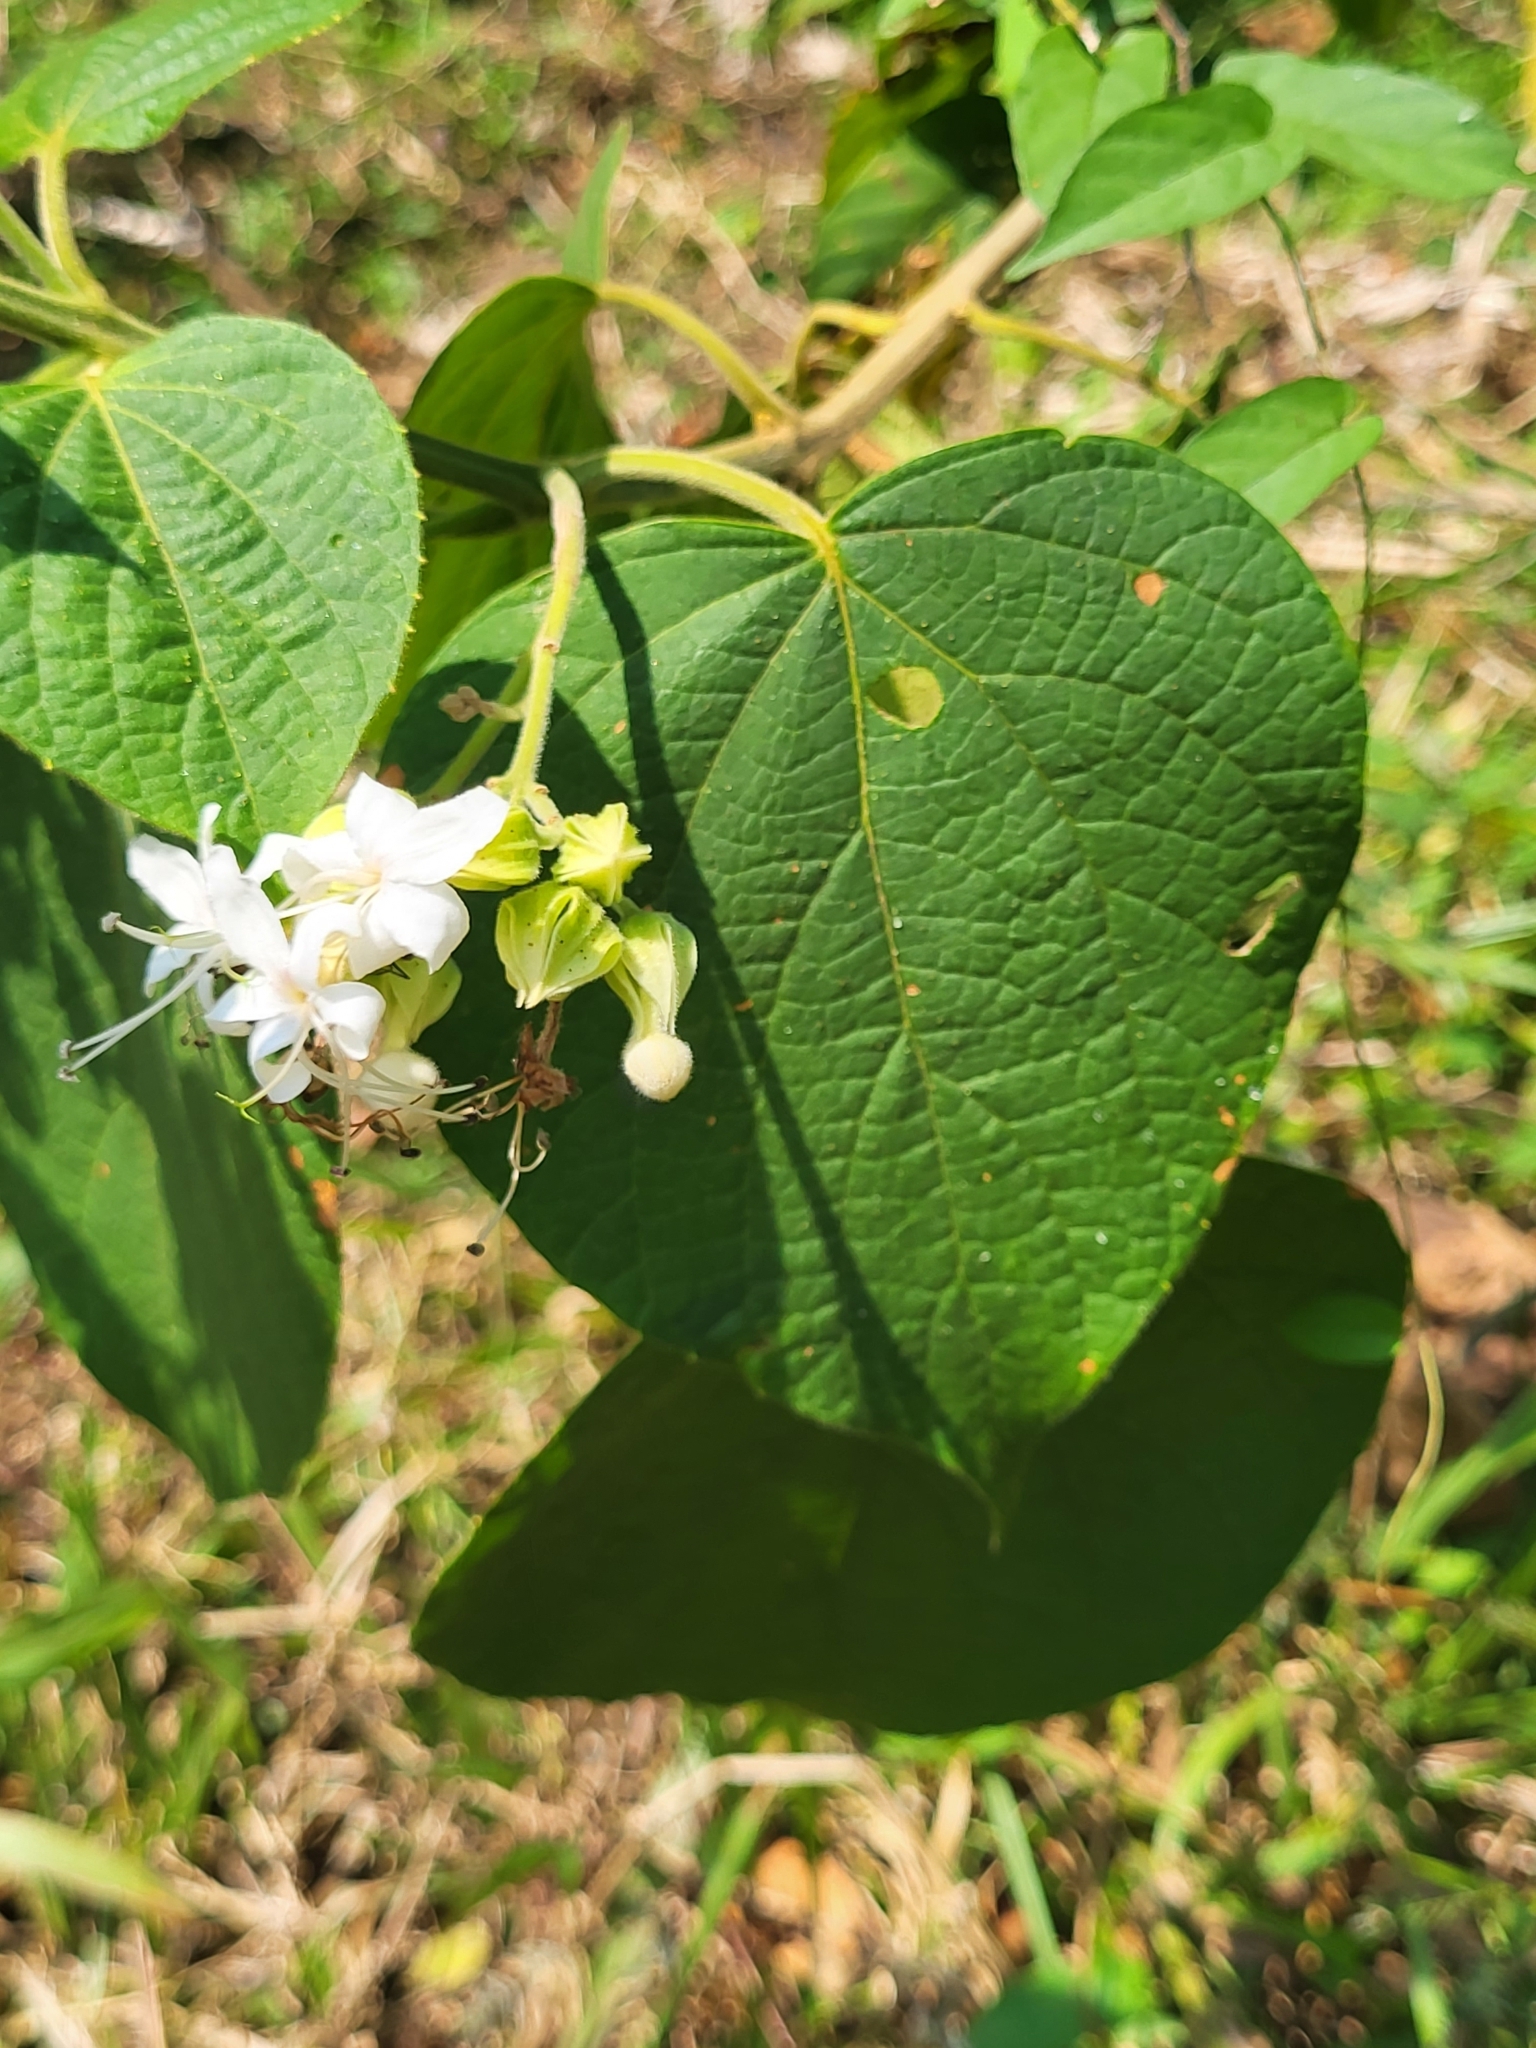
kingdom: Plantae
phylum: Tracheophyta
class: Magnoliopsida
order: Lamiales
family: Lamiaceae
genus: Clerodendrum
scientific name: Clerodendrum infortunatum
